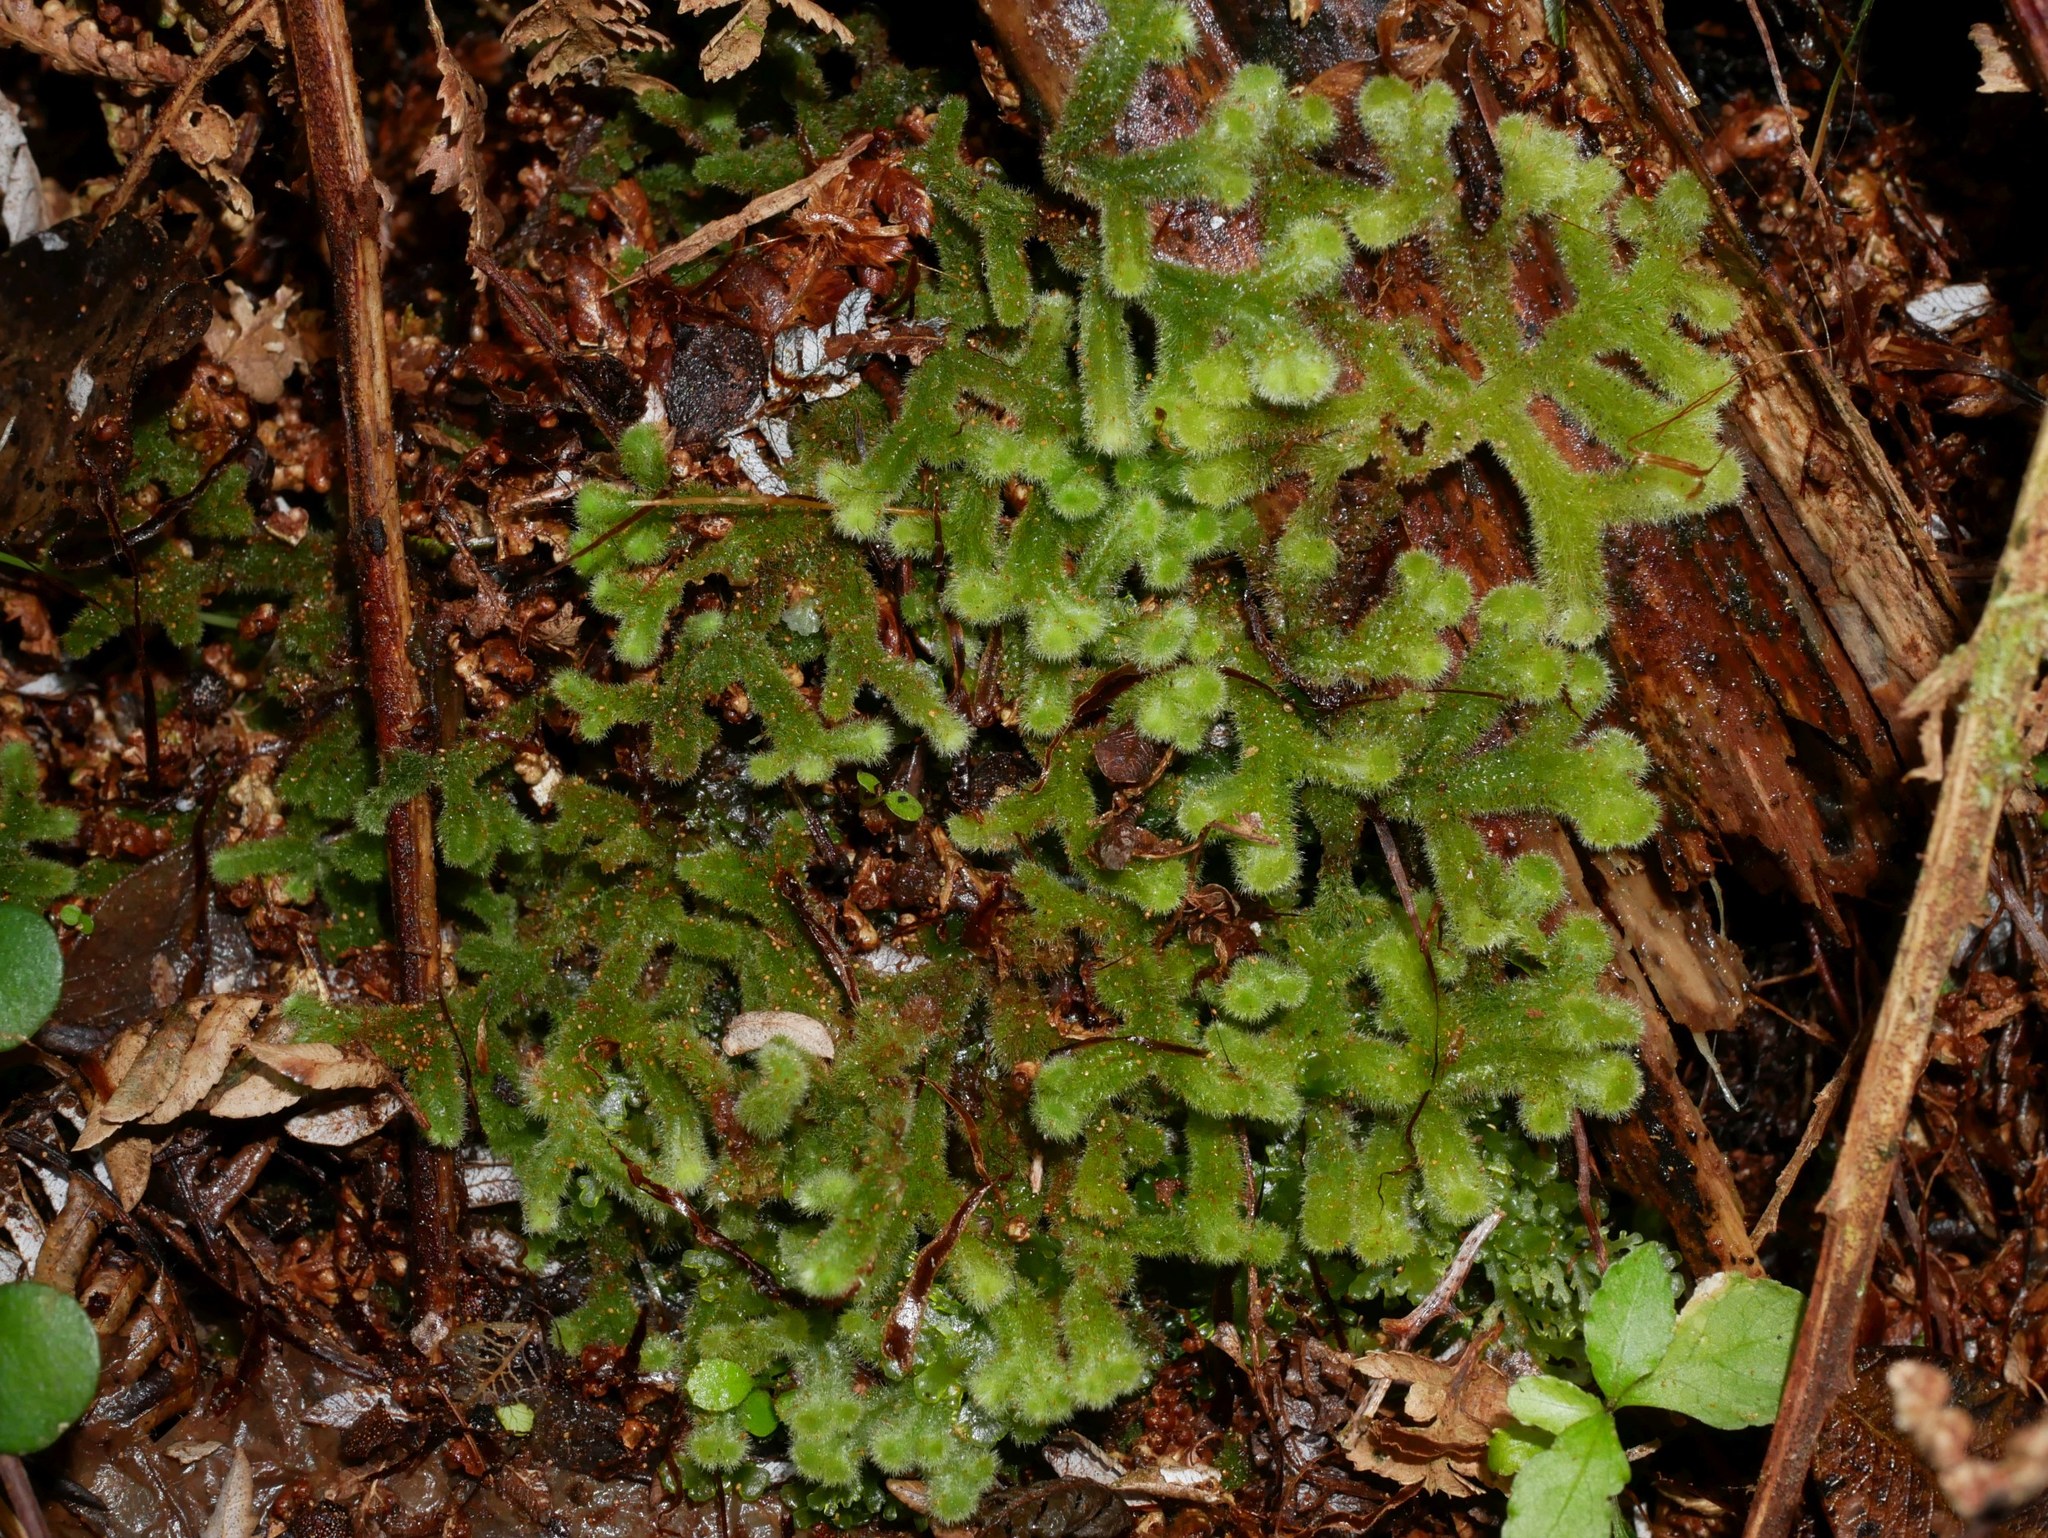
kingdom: Plantae
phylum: Marchantiophyta
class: Jungermanniopsida
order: Jungermanniales
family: Trichocoleaceae
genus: Leiomitra
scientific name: Leiomitra lanata
